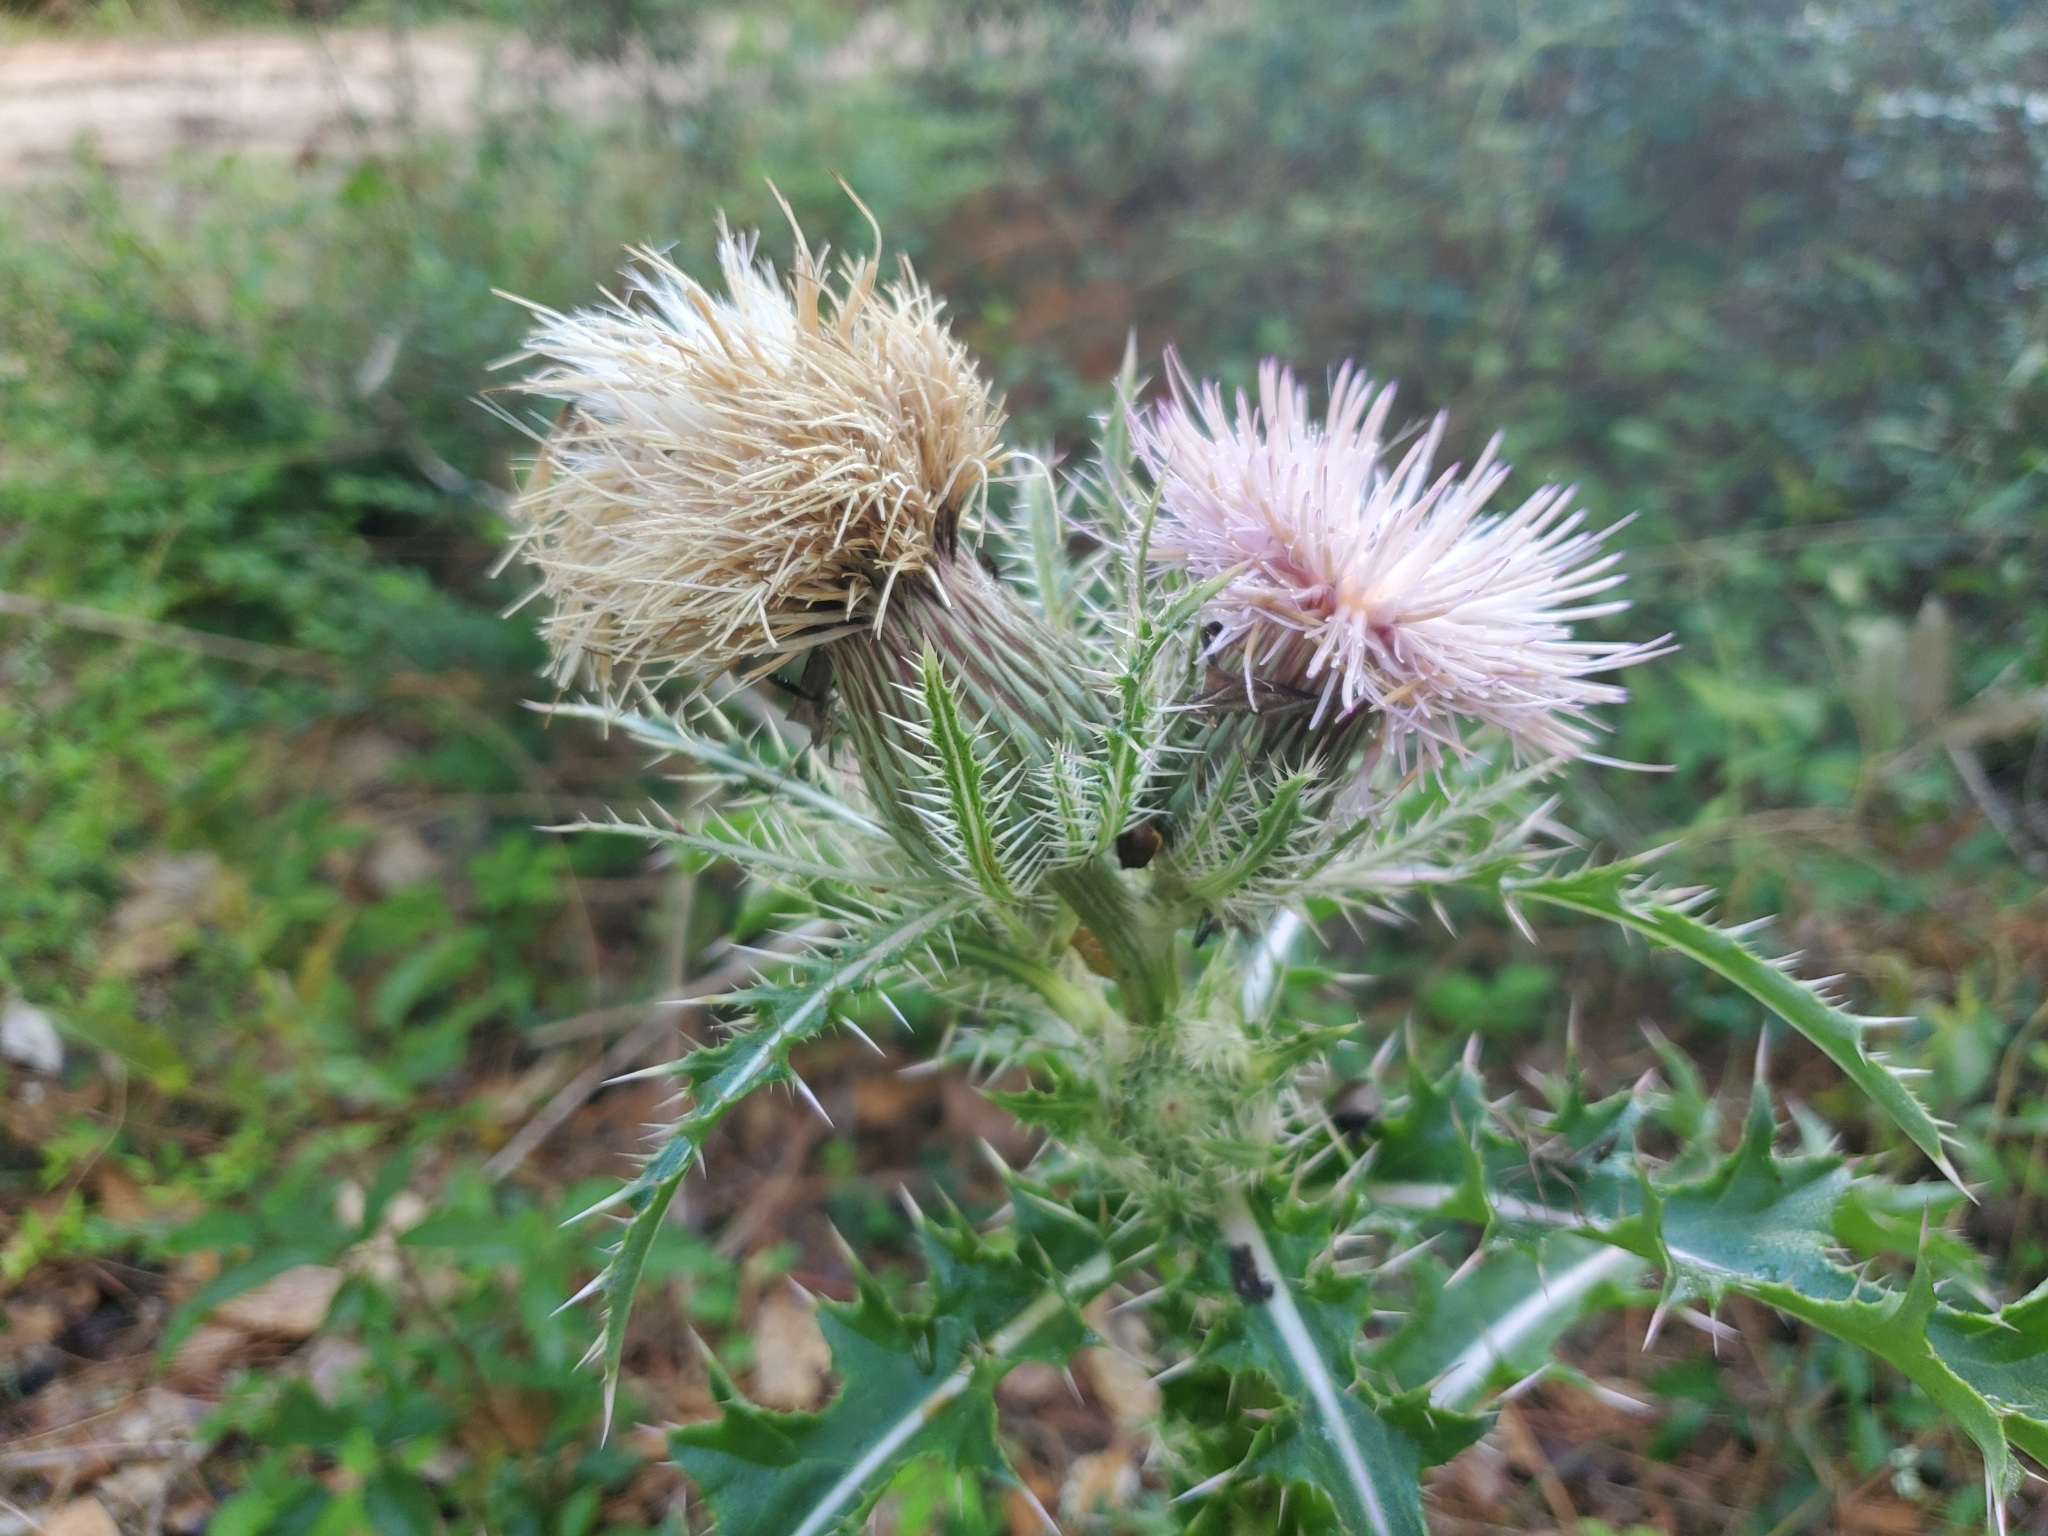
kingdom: Plantae
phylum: Tracheophyta
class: Magnoliopsida
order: Asterales
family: Asteraceae
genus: Cirsium
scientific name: Cirsium horridulum
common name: Bristly thistle
